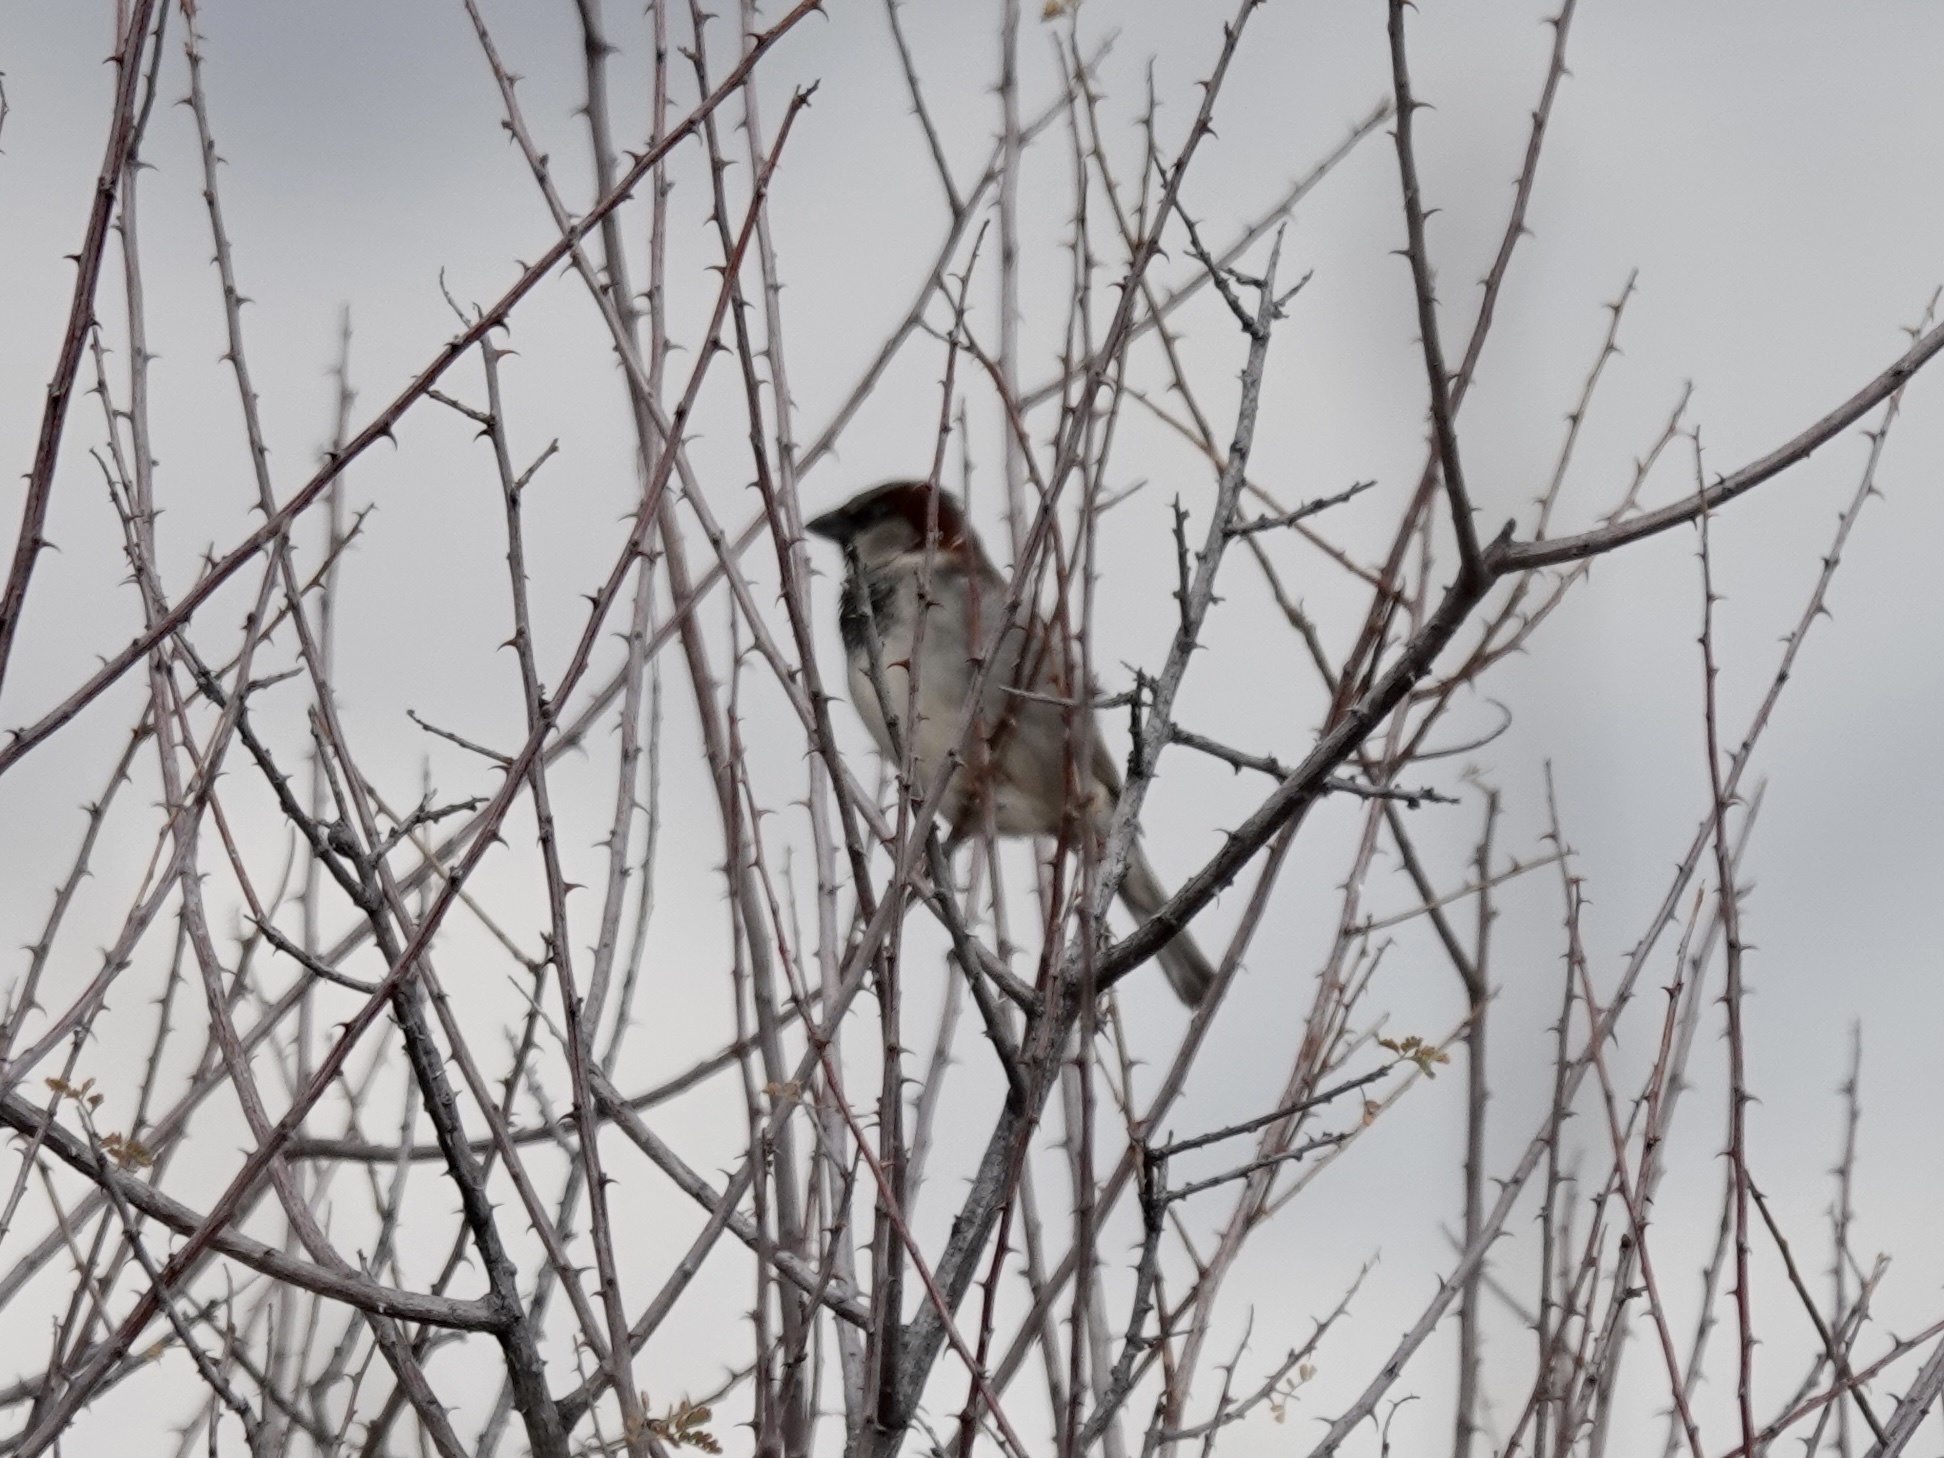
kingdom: Animalia
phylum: Chordata
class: Aves
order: Passeriformes
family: Passeridae
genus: Passer
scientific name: Passer domesticus
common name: House sparrow
